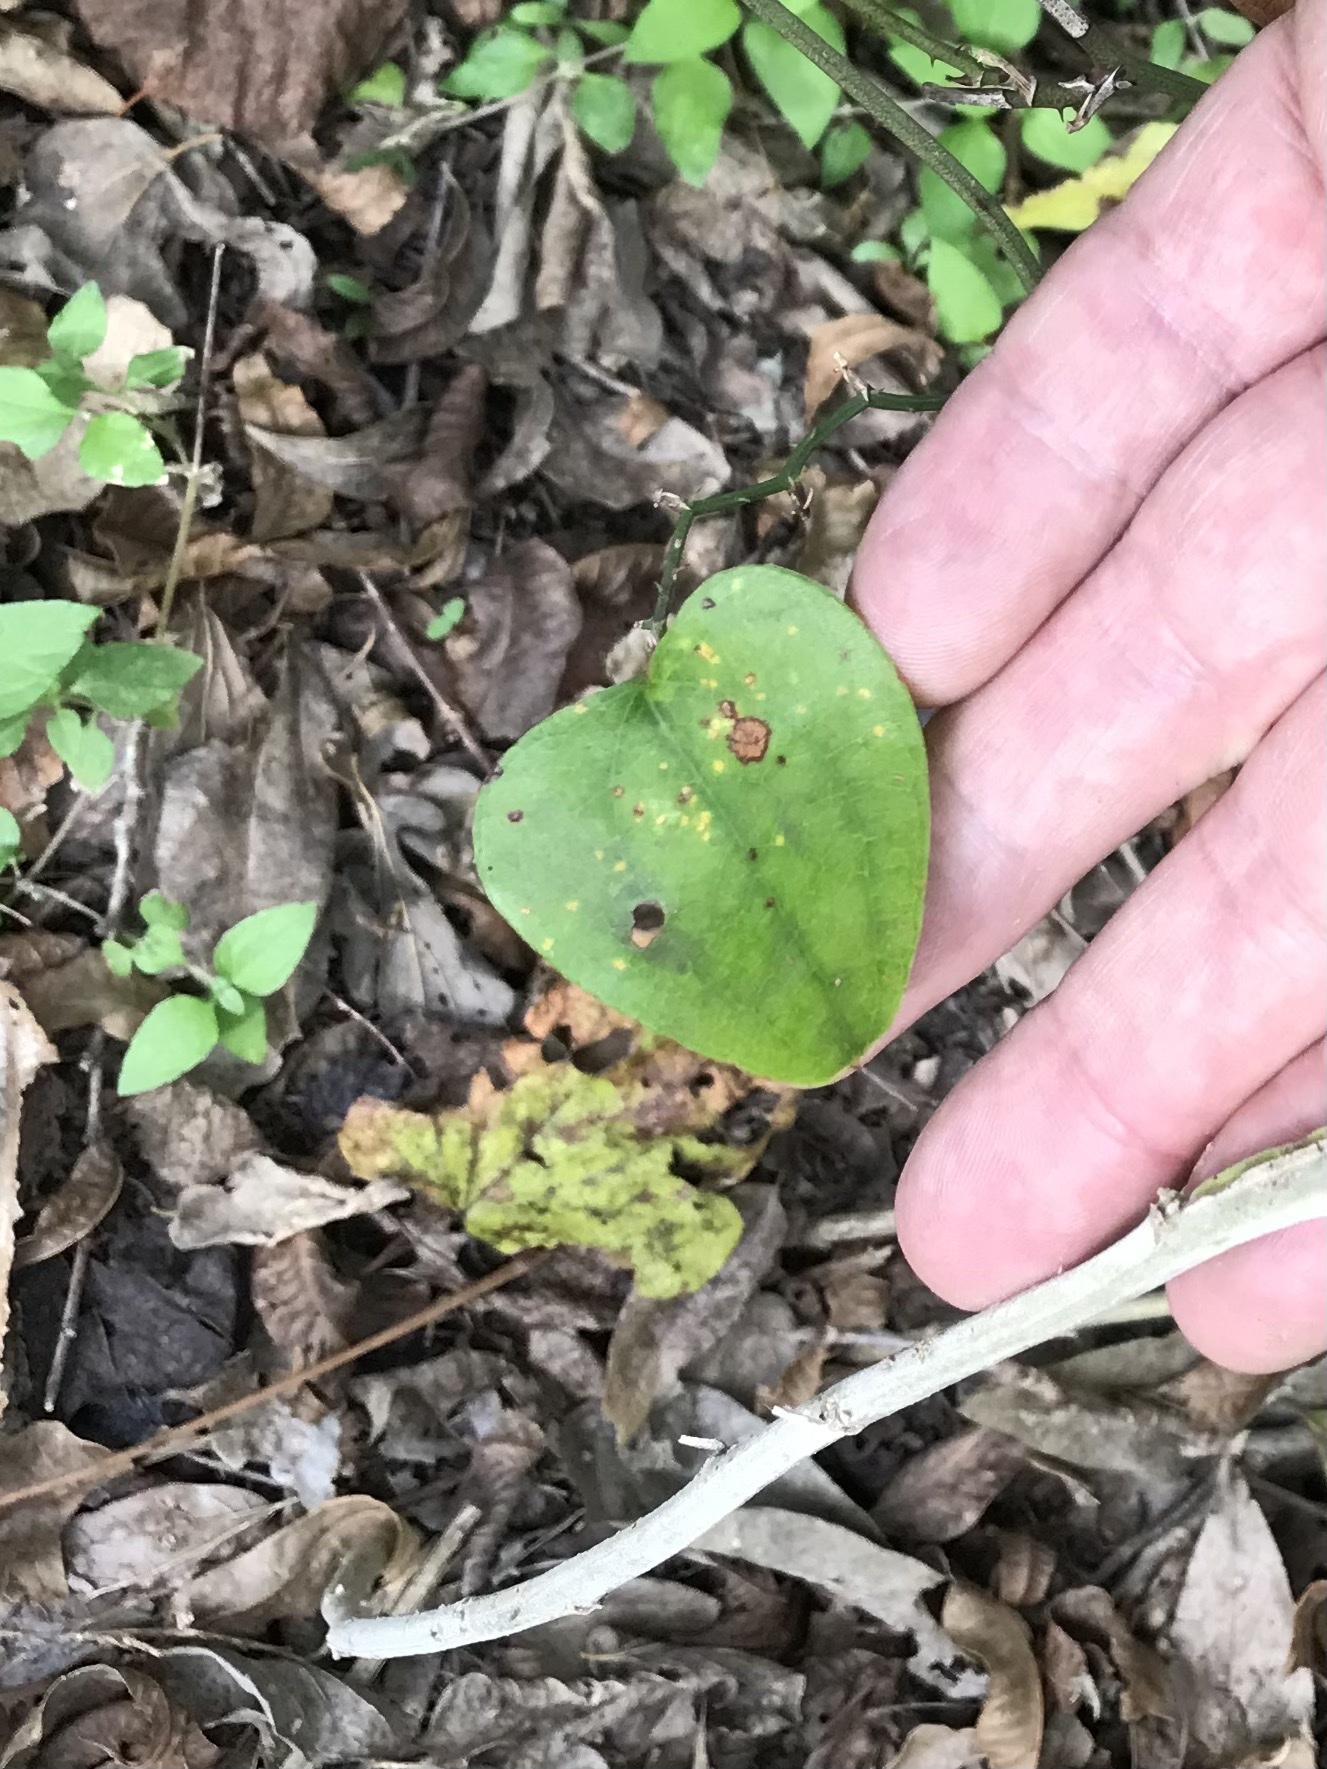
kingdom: Plantae
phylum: Tracheophyta
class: Liliopsida
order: Liliales
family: Smilacaceae
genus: Smilax
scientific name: Smilax bona-nox
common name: Catbrier
